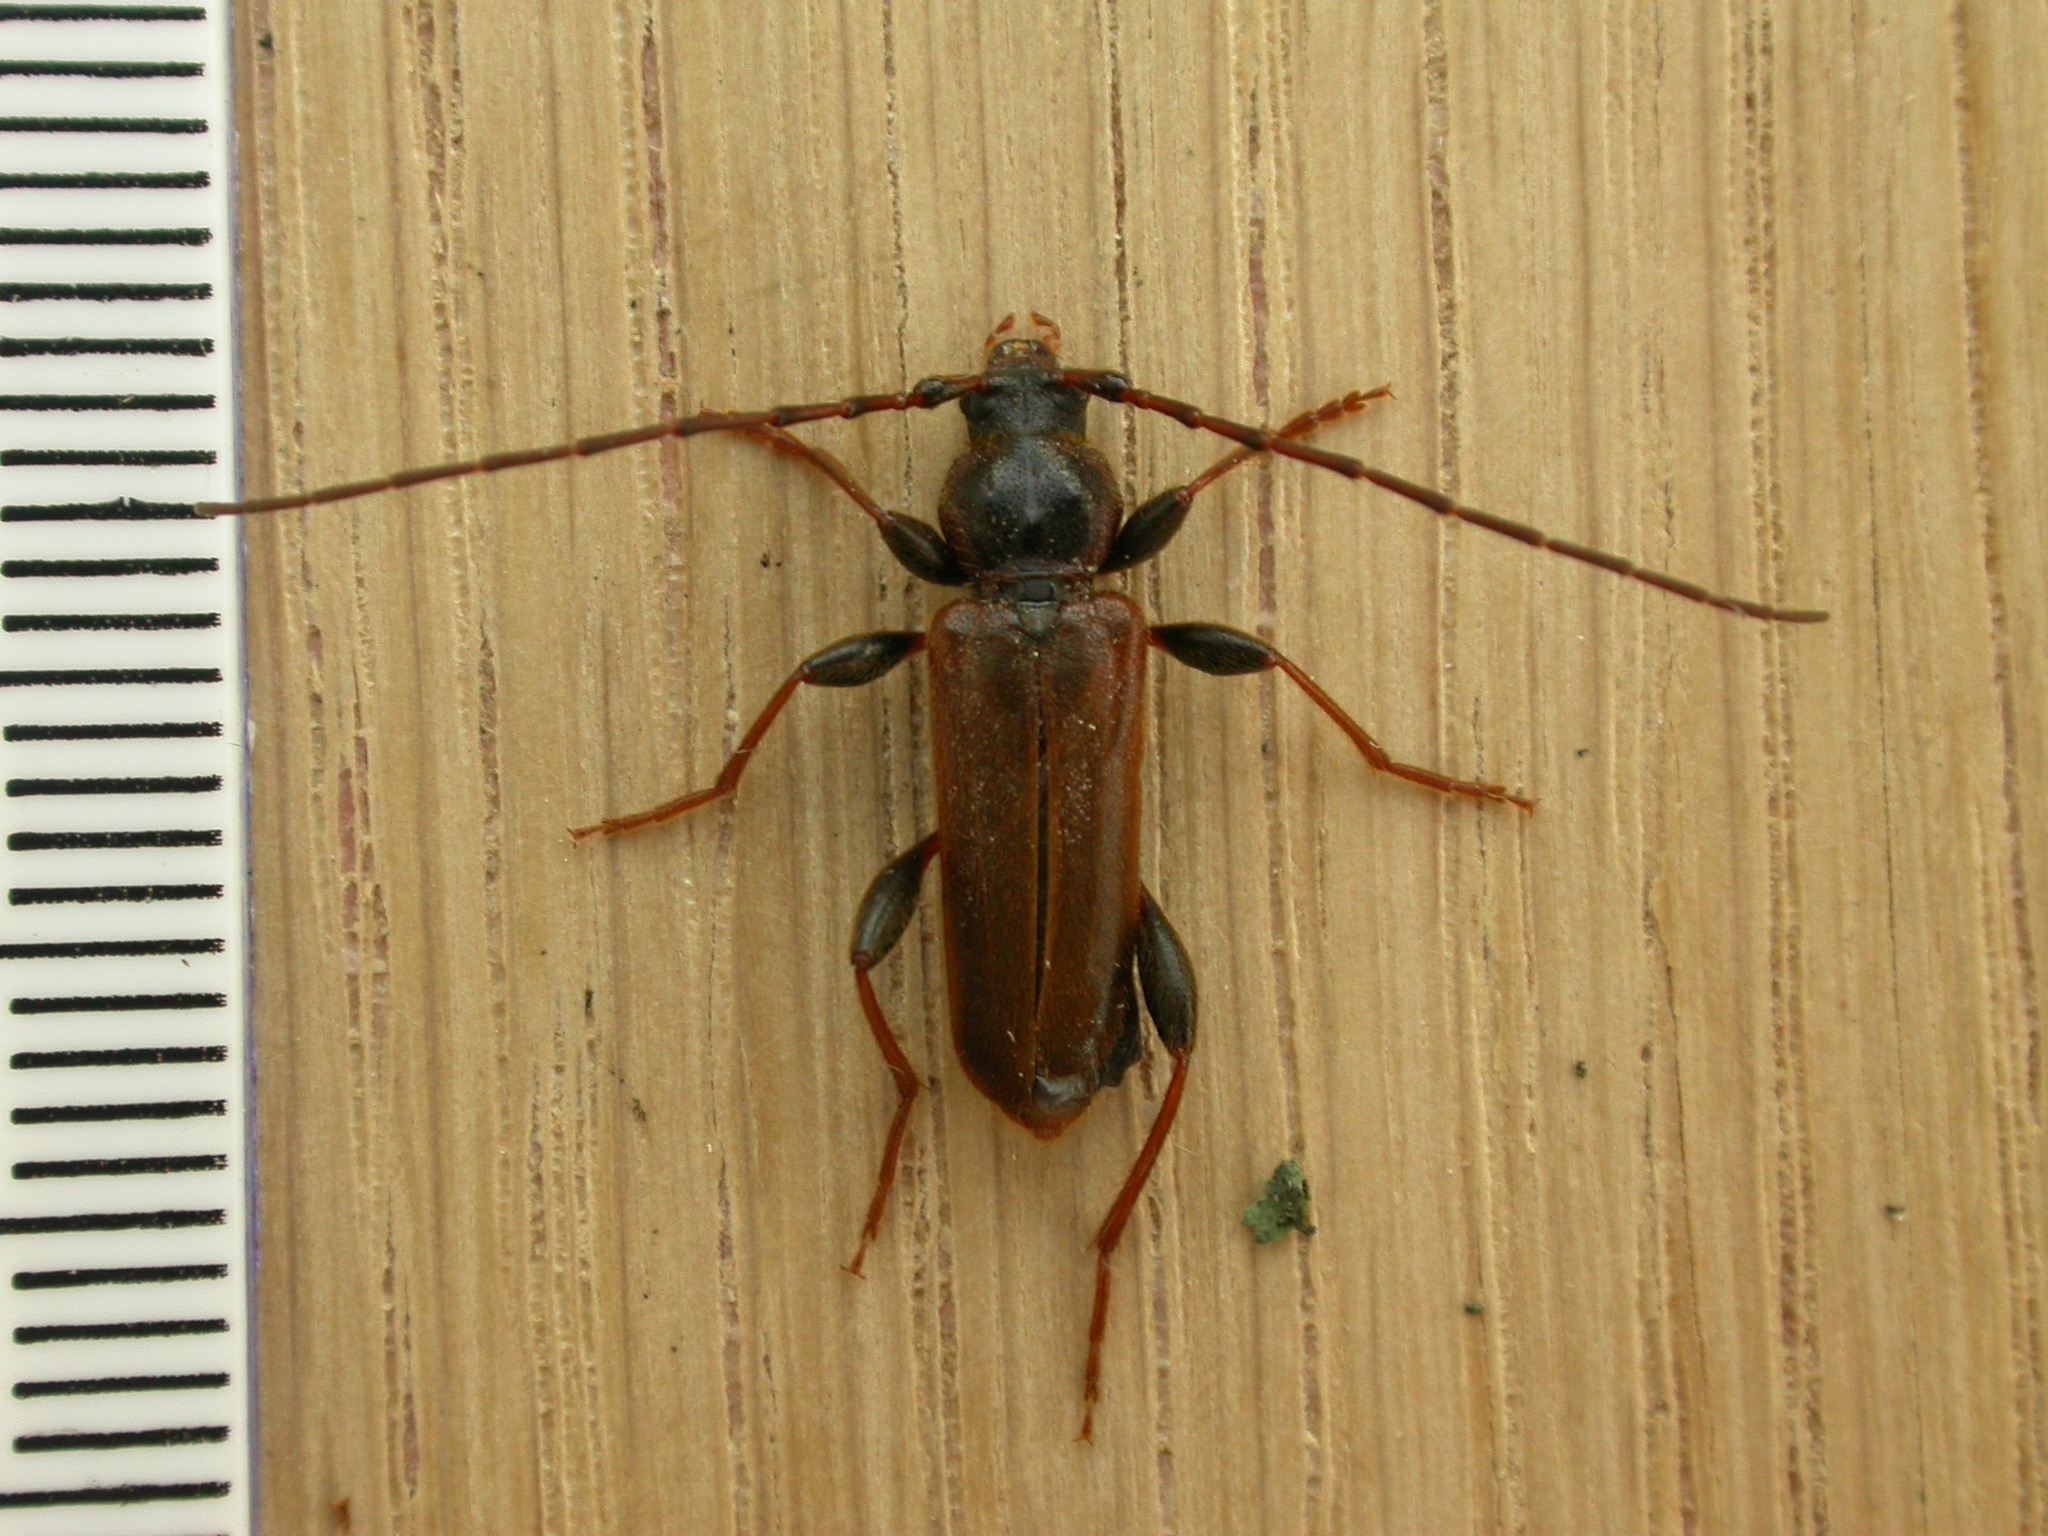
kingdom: Animalia
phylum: Arthropoda
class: Insecta
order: Coleoptera
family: Cerambycidae
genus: Phymatodes
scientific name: Phymatodes testaceus
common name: Long-horned beetle
